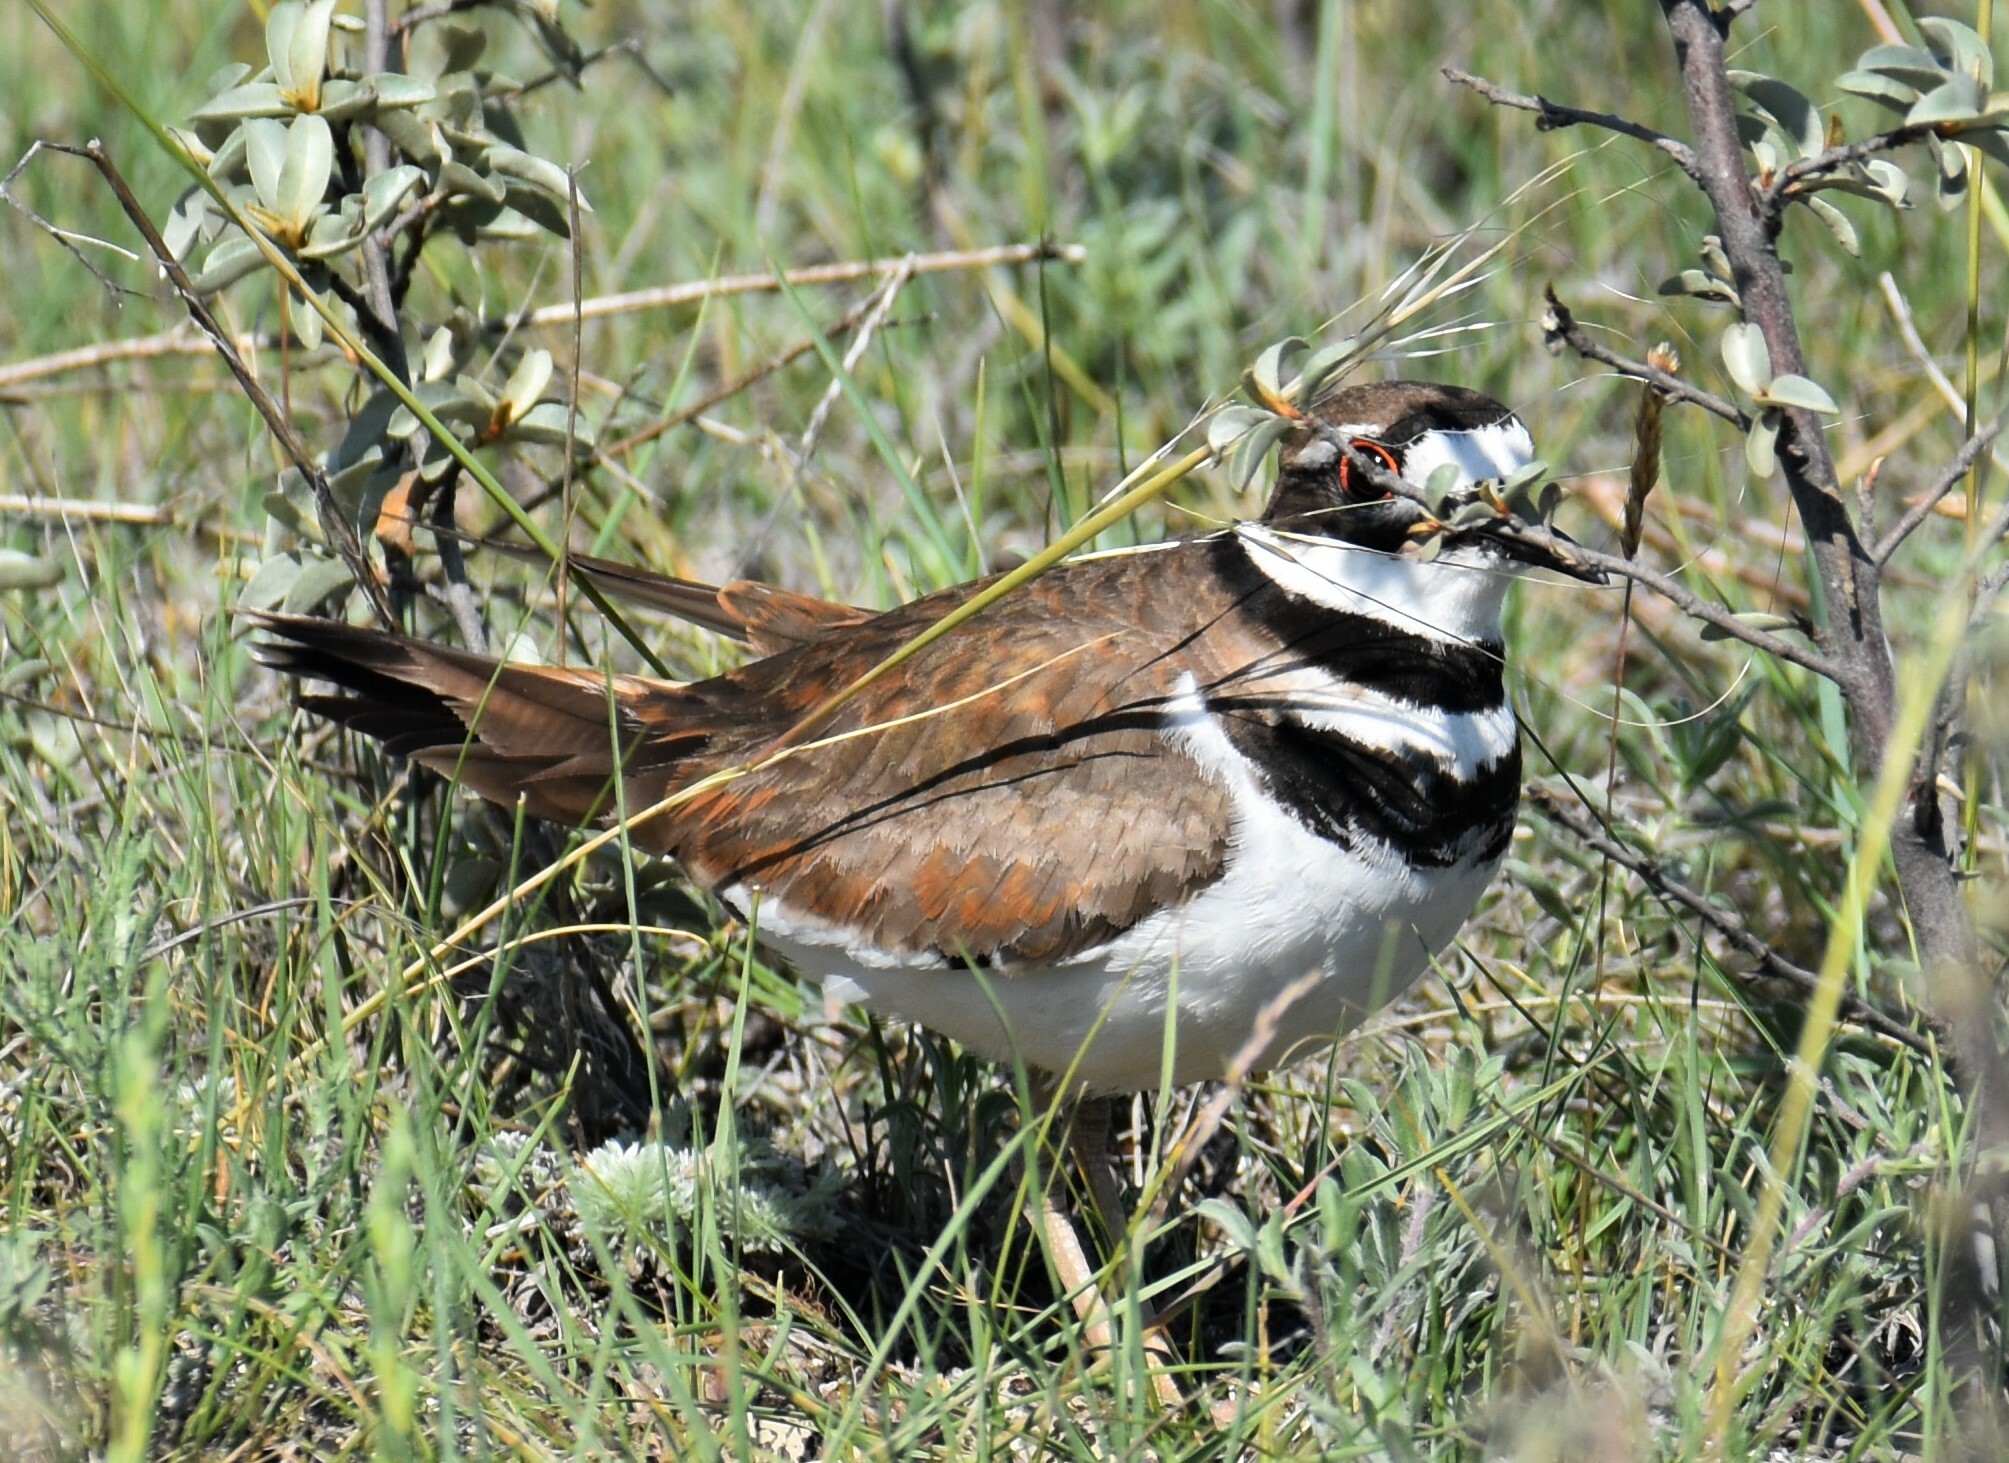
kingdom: Animalia
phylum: Chordata
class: Aves
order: Charadriiformes
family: Charadriidae
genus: Charadrius
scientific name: Charadrius vociferus
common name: Killdeer
